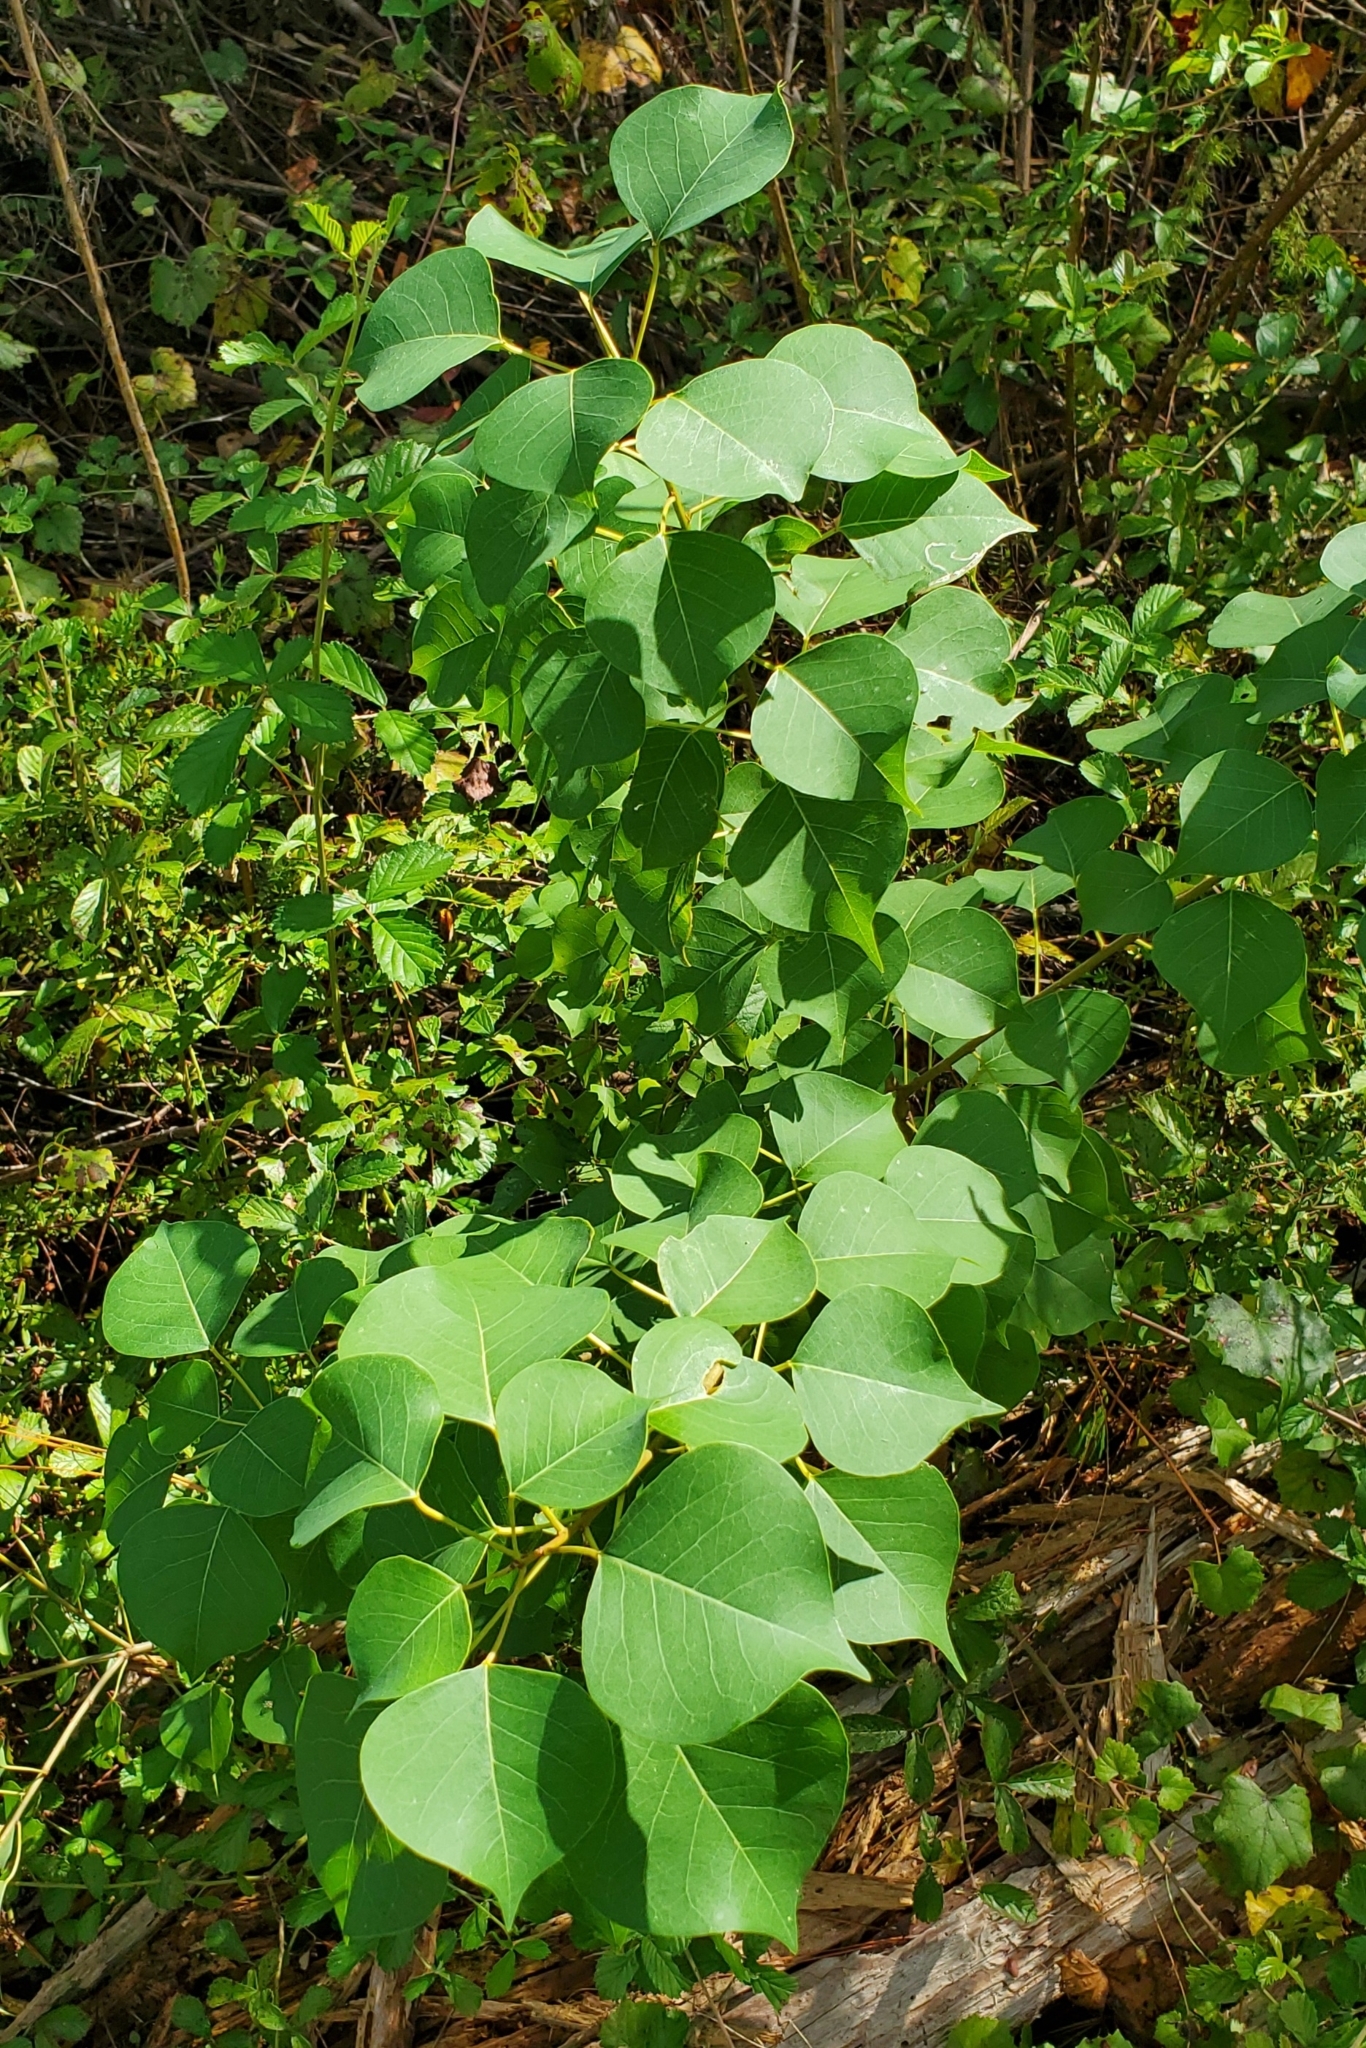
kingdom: Plantae
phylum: Tracheophyta
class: Magnoliopsida
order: Malpighiales
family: Euphorbiaceae
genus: Triadica
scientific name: Triadica sebifera
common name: Chinese tallow
